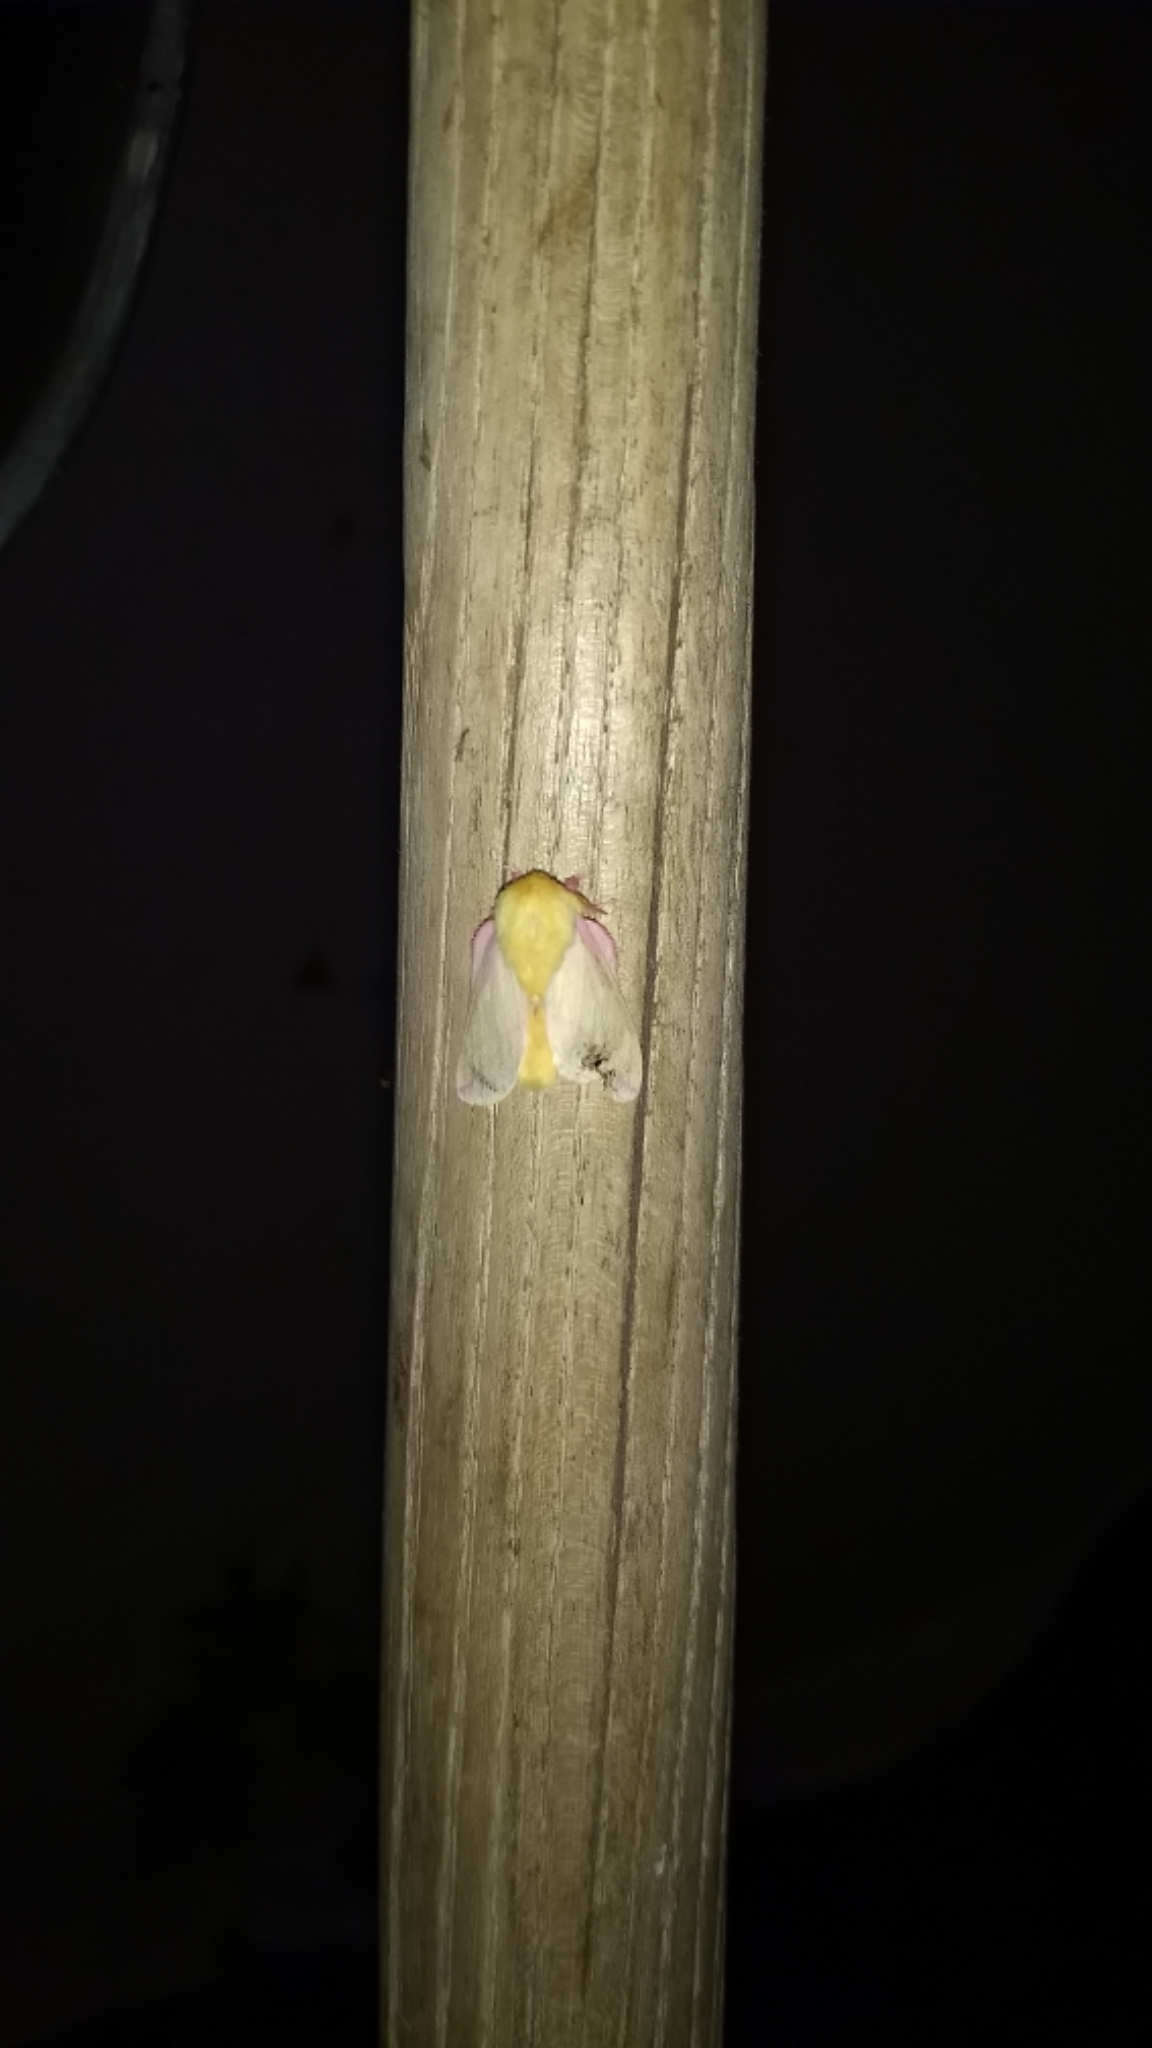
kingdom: Animalia
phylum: Arthropoda
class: Insecta
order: Lepidoptera
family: Saturniidae
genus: Dryocampa
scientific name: Dryocampa rubicunda
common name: Rosy maple moth
